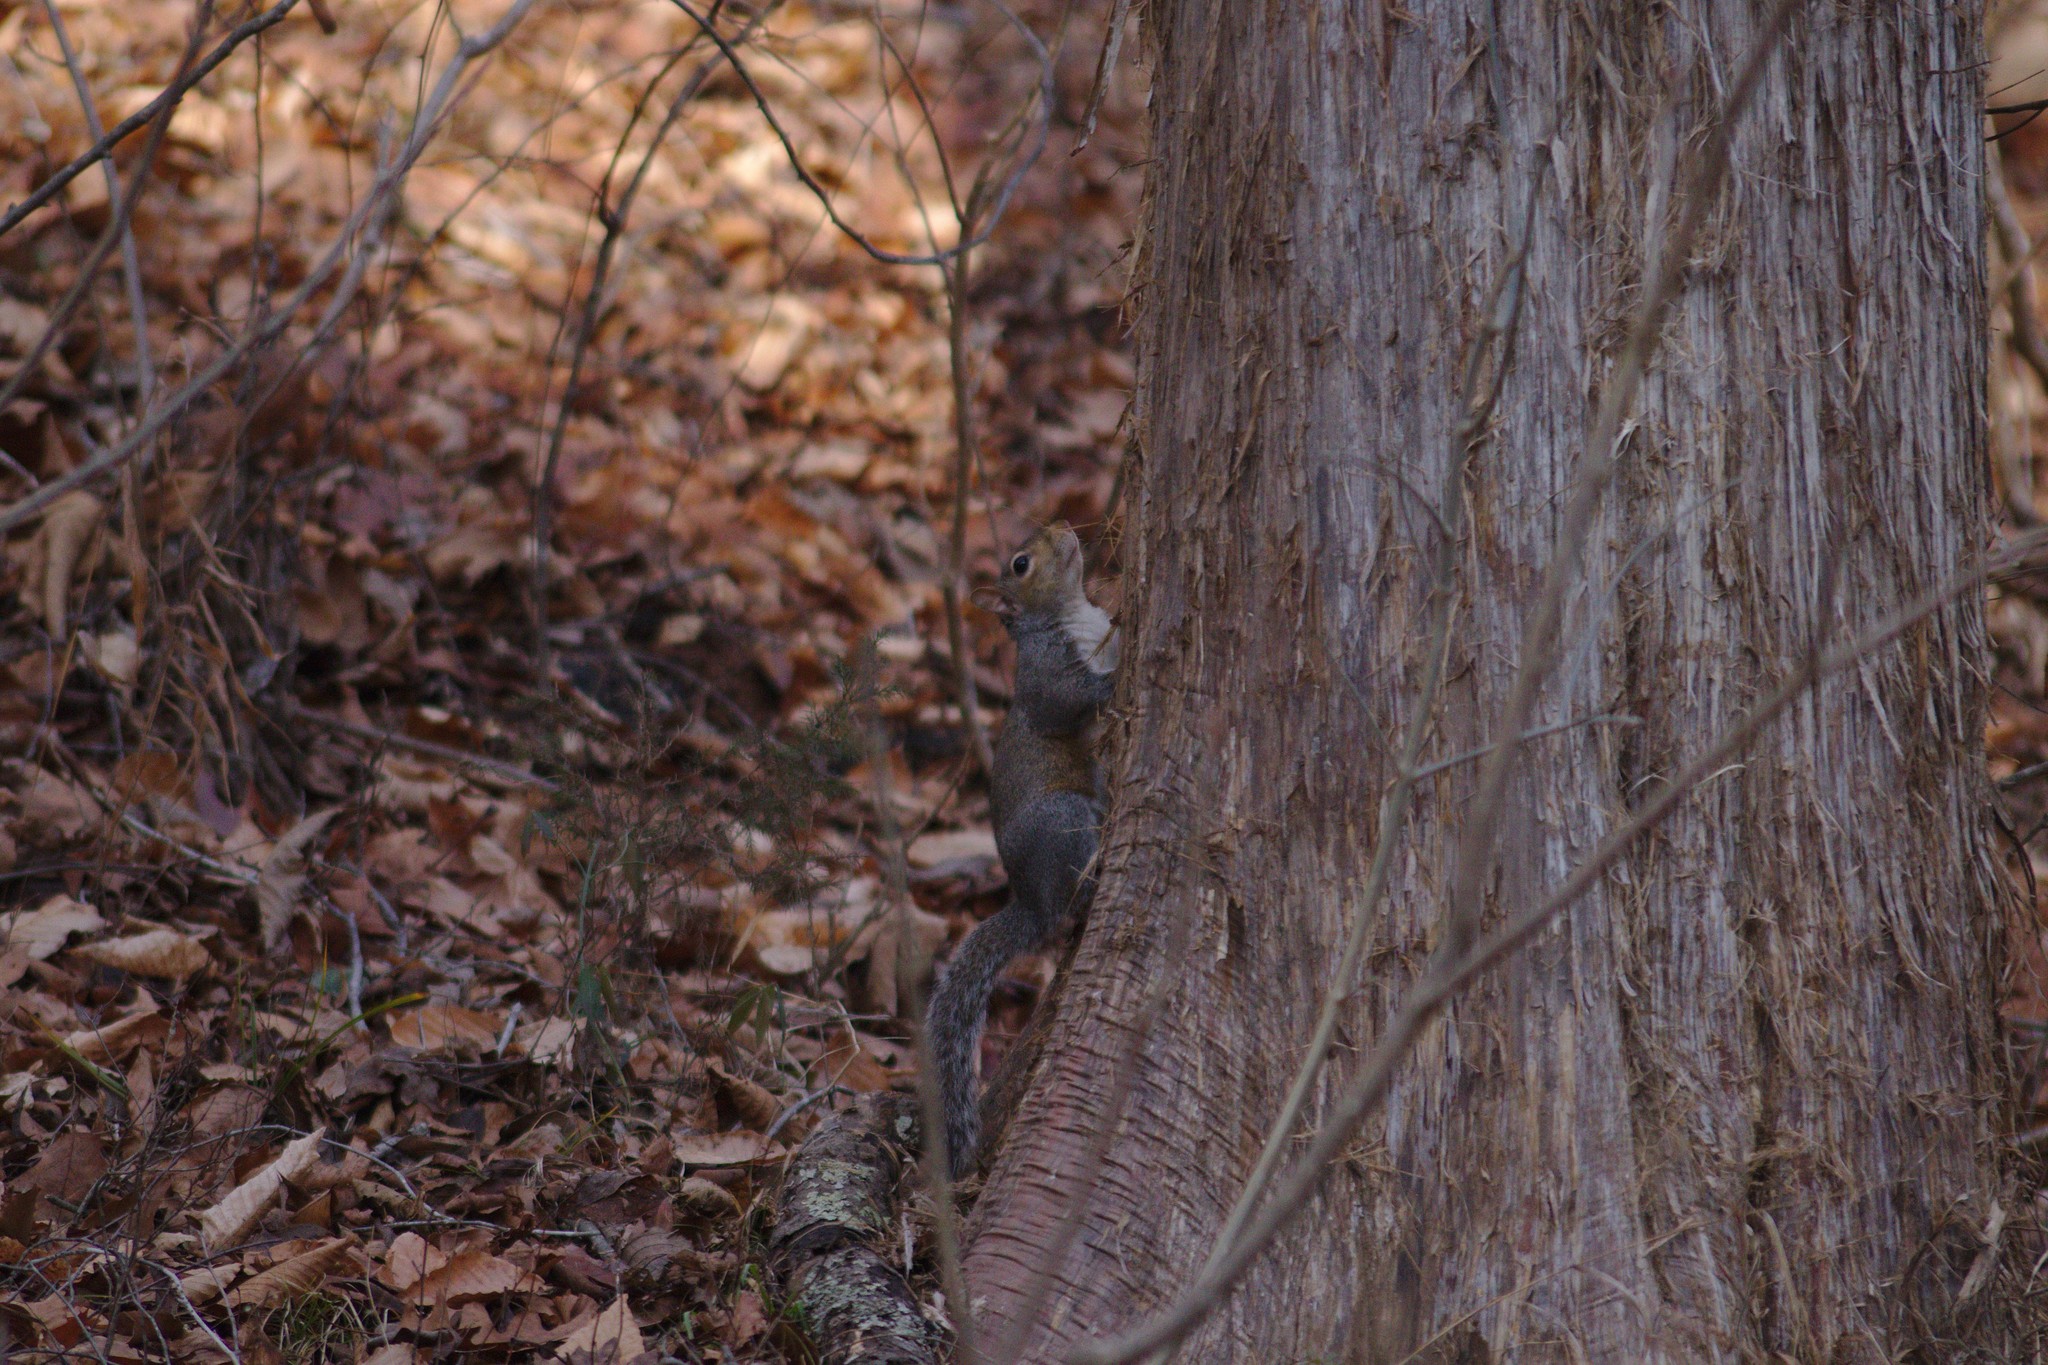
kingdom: Animalia
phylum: Chordata
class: Mammalia
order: Rodentia
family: Sciuridae
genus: Sciurus
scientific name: Sciurus carolinensis
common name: Eastern gray squirrel
